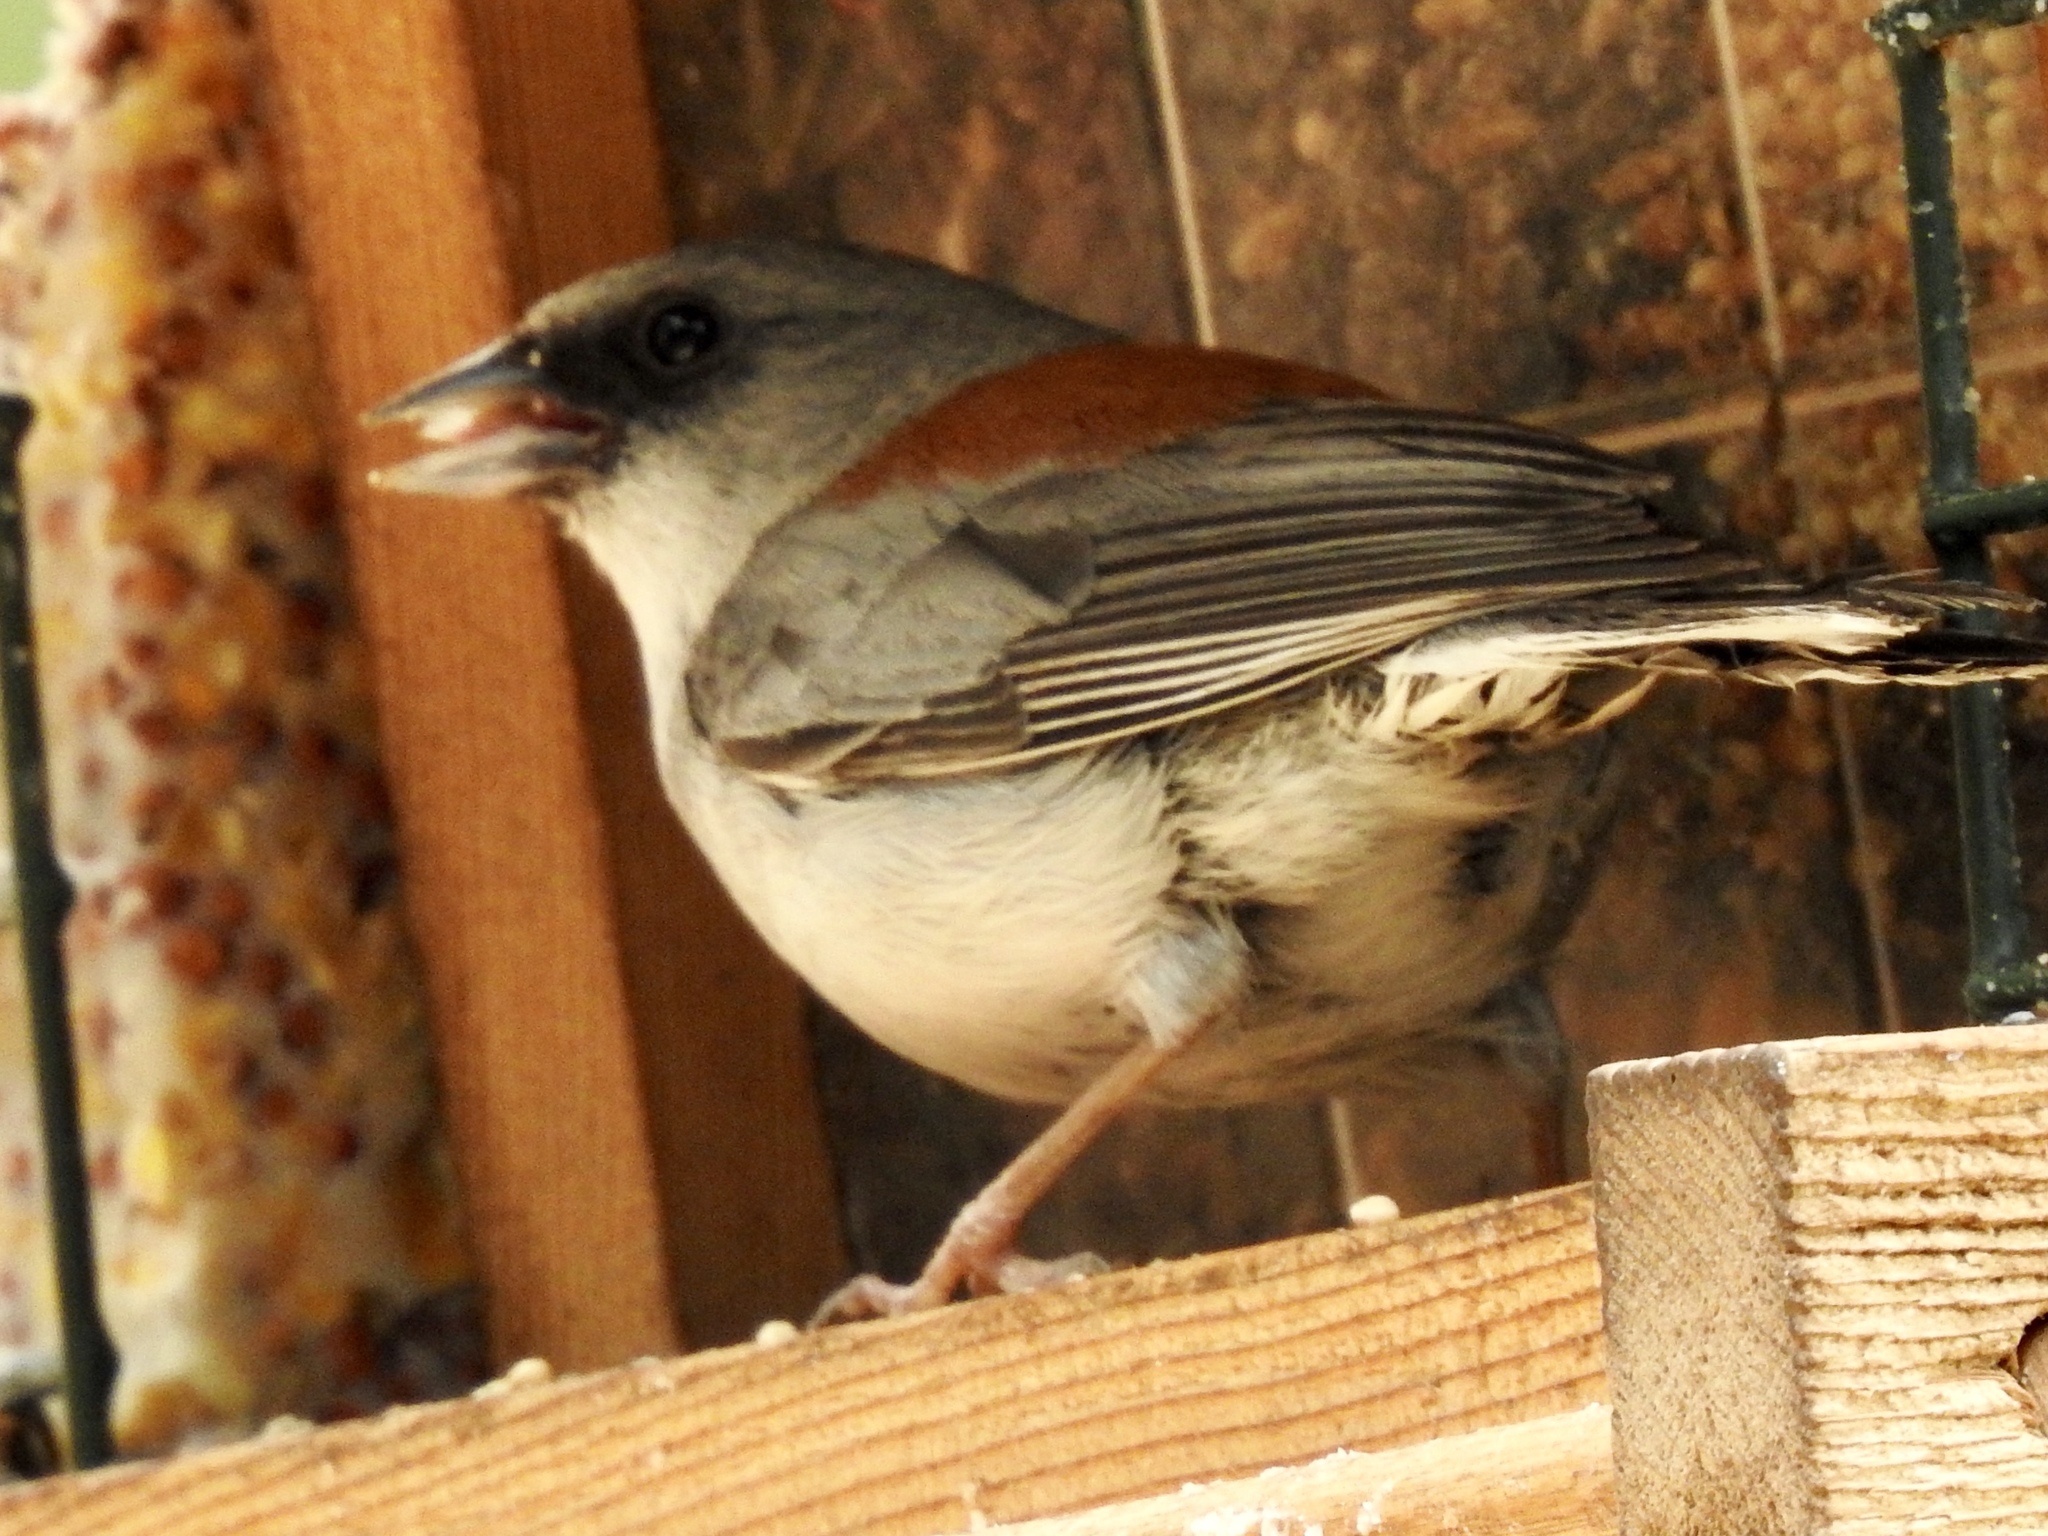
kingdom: Animalia
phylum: Chordata
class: Aves
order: Passeriformes
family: Passerellidae
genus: Junco
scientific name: Junco hyemalis
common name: Dark-eyed junco
